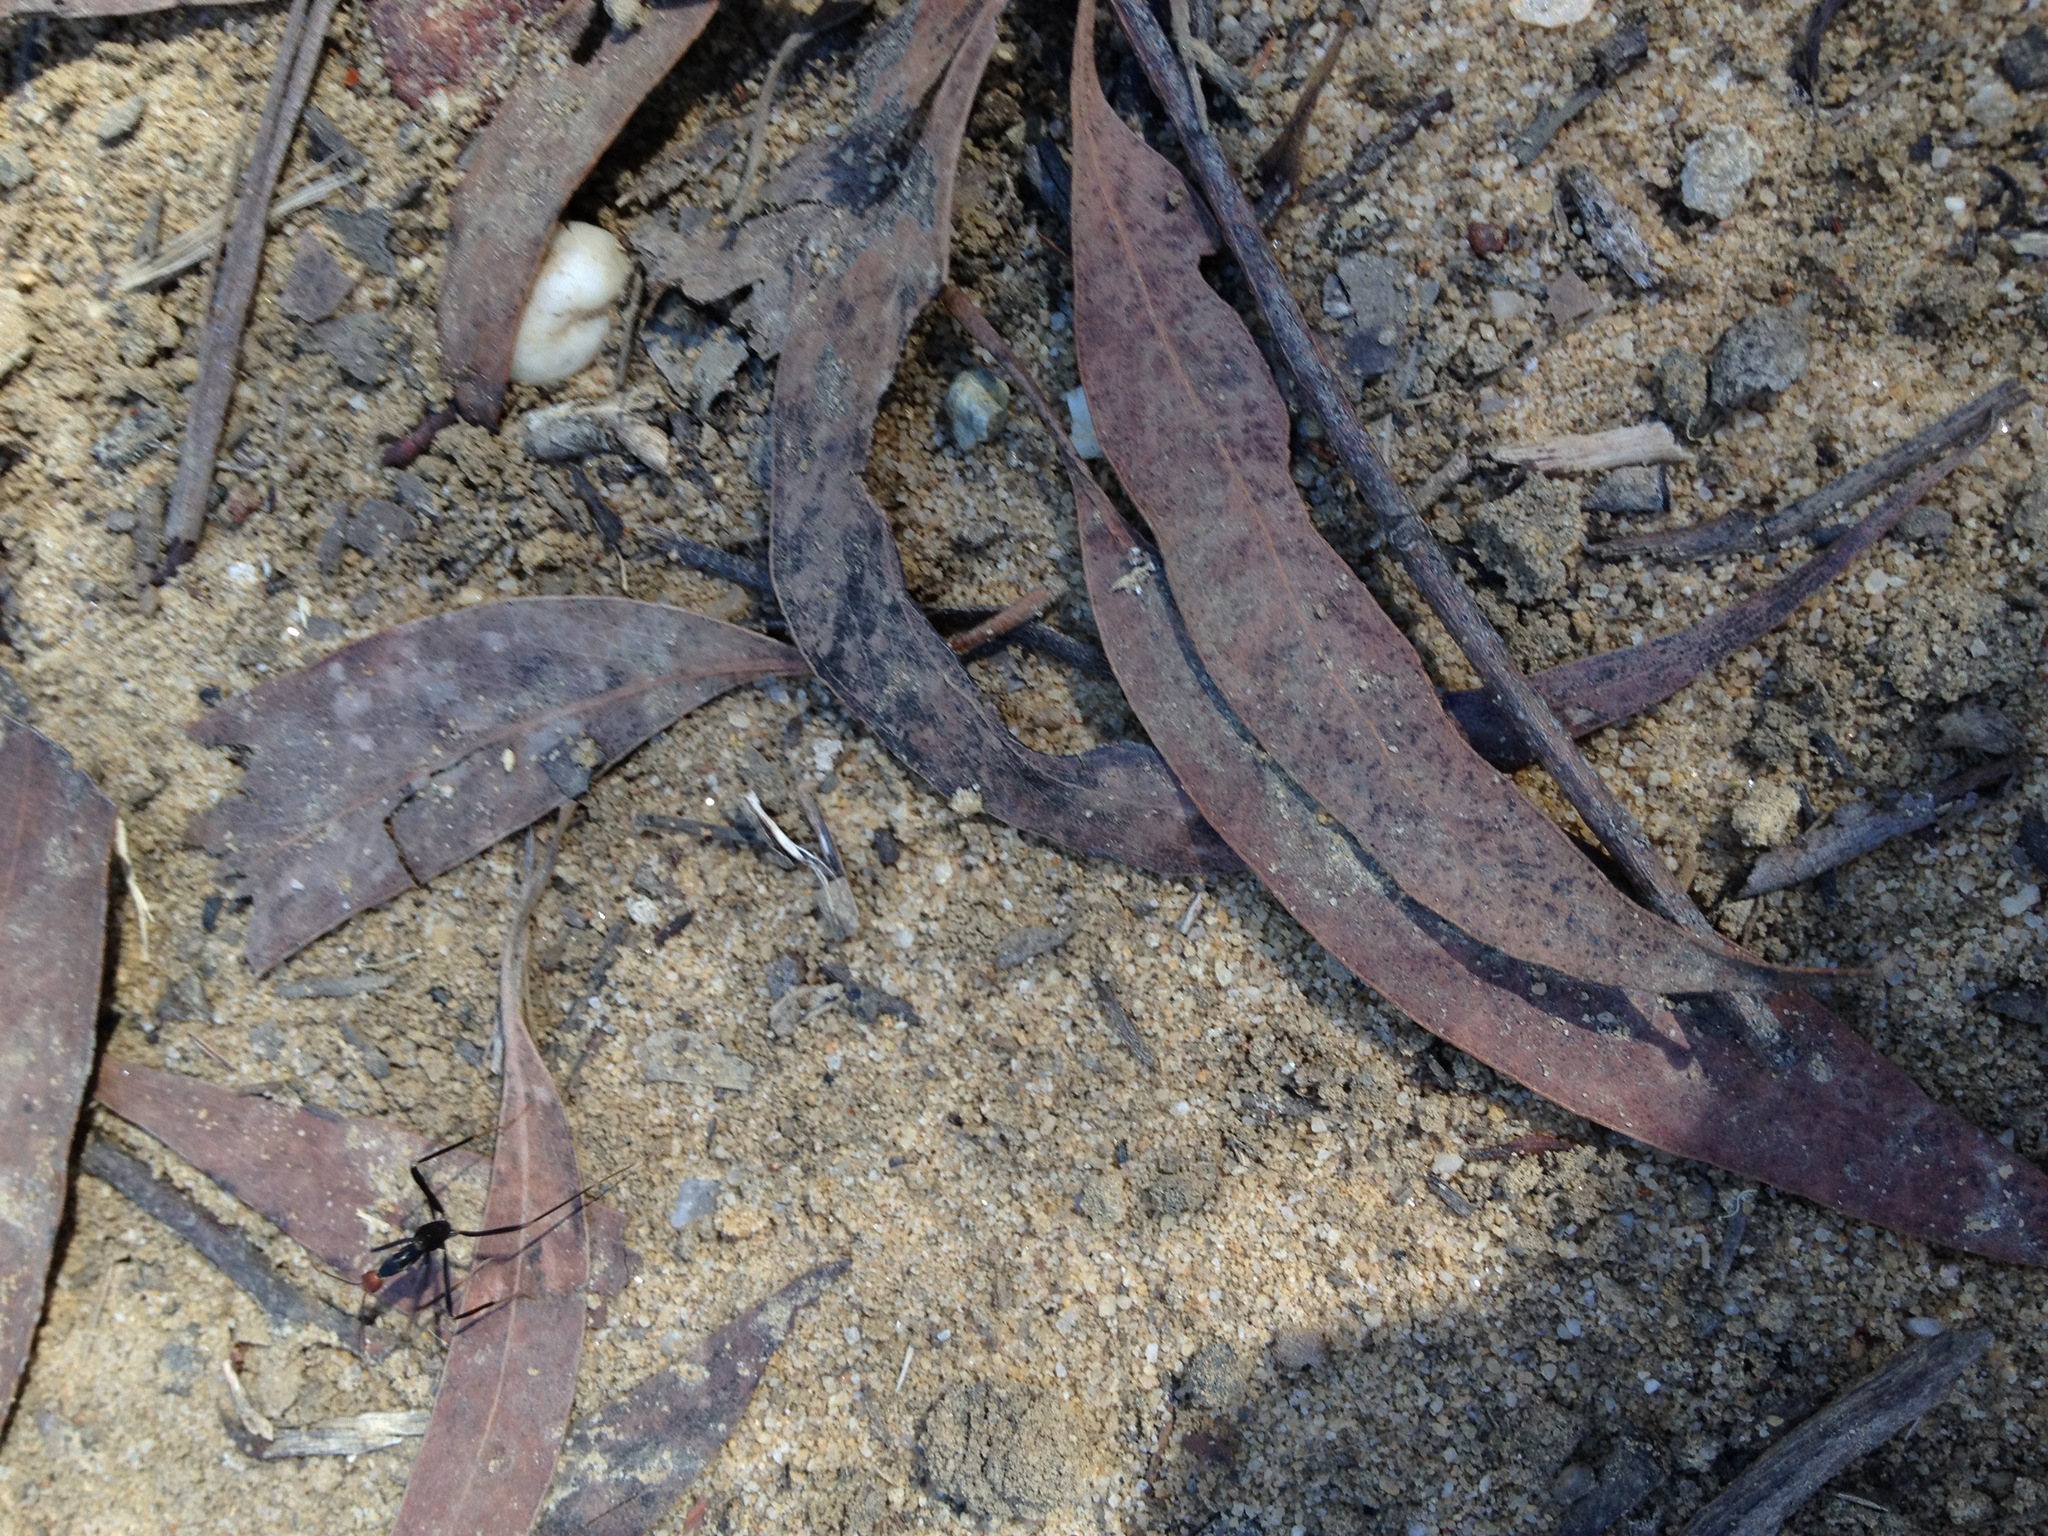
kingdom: Animalia
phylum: Arthropoda
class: Insecta
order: Hymenoptera
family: Formicidae
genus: Leptomyrmex
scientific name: Leptomyrmex erythrocephalus
